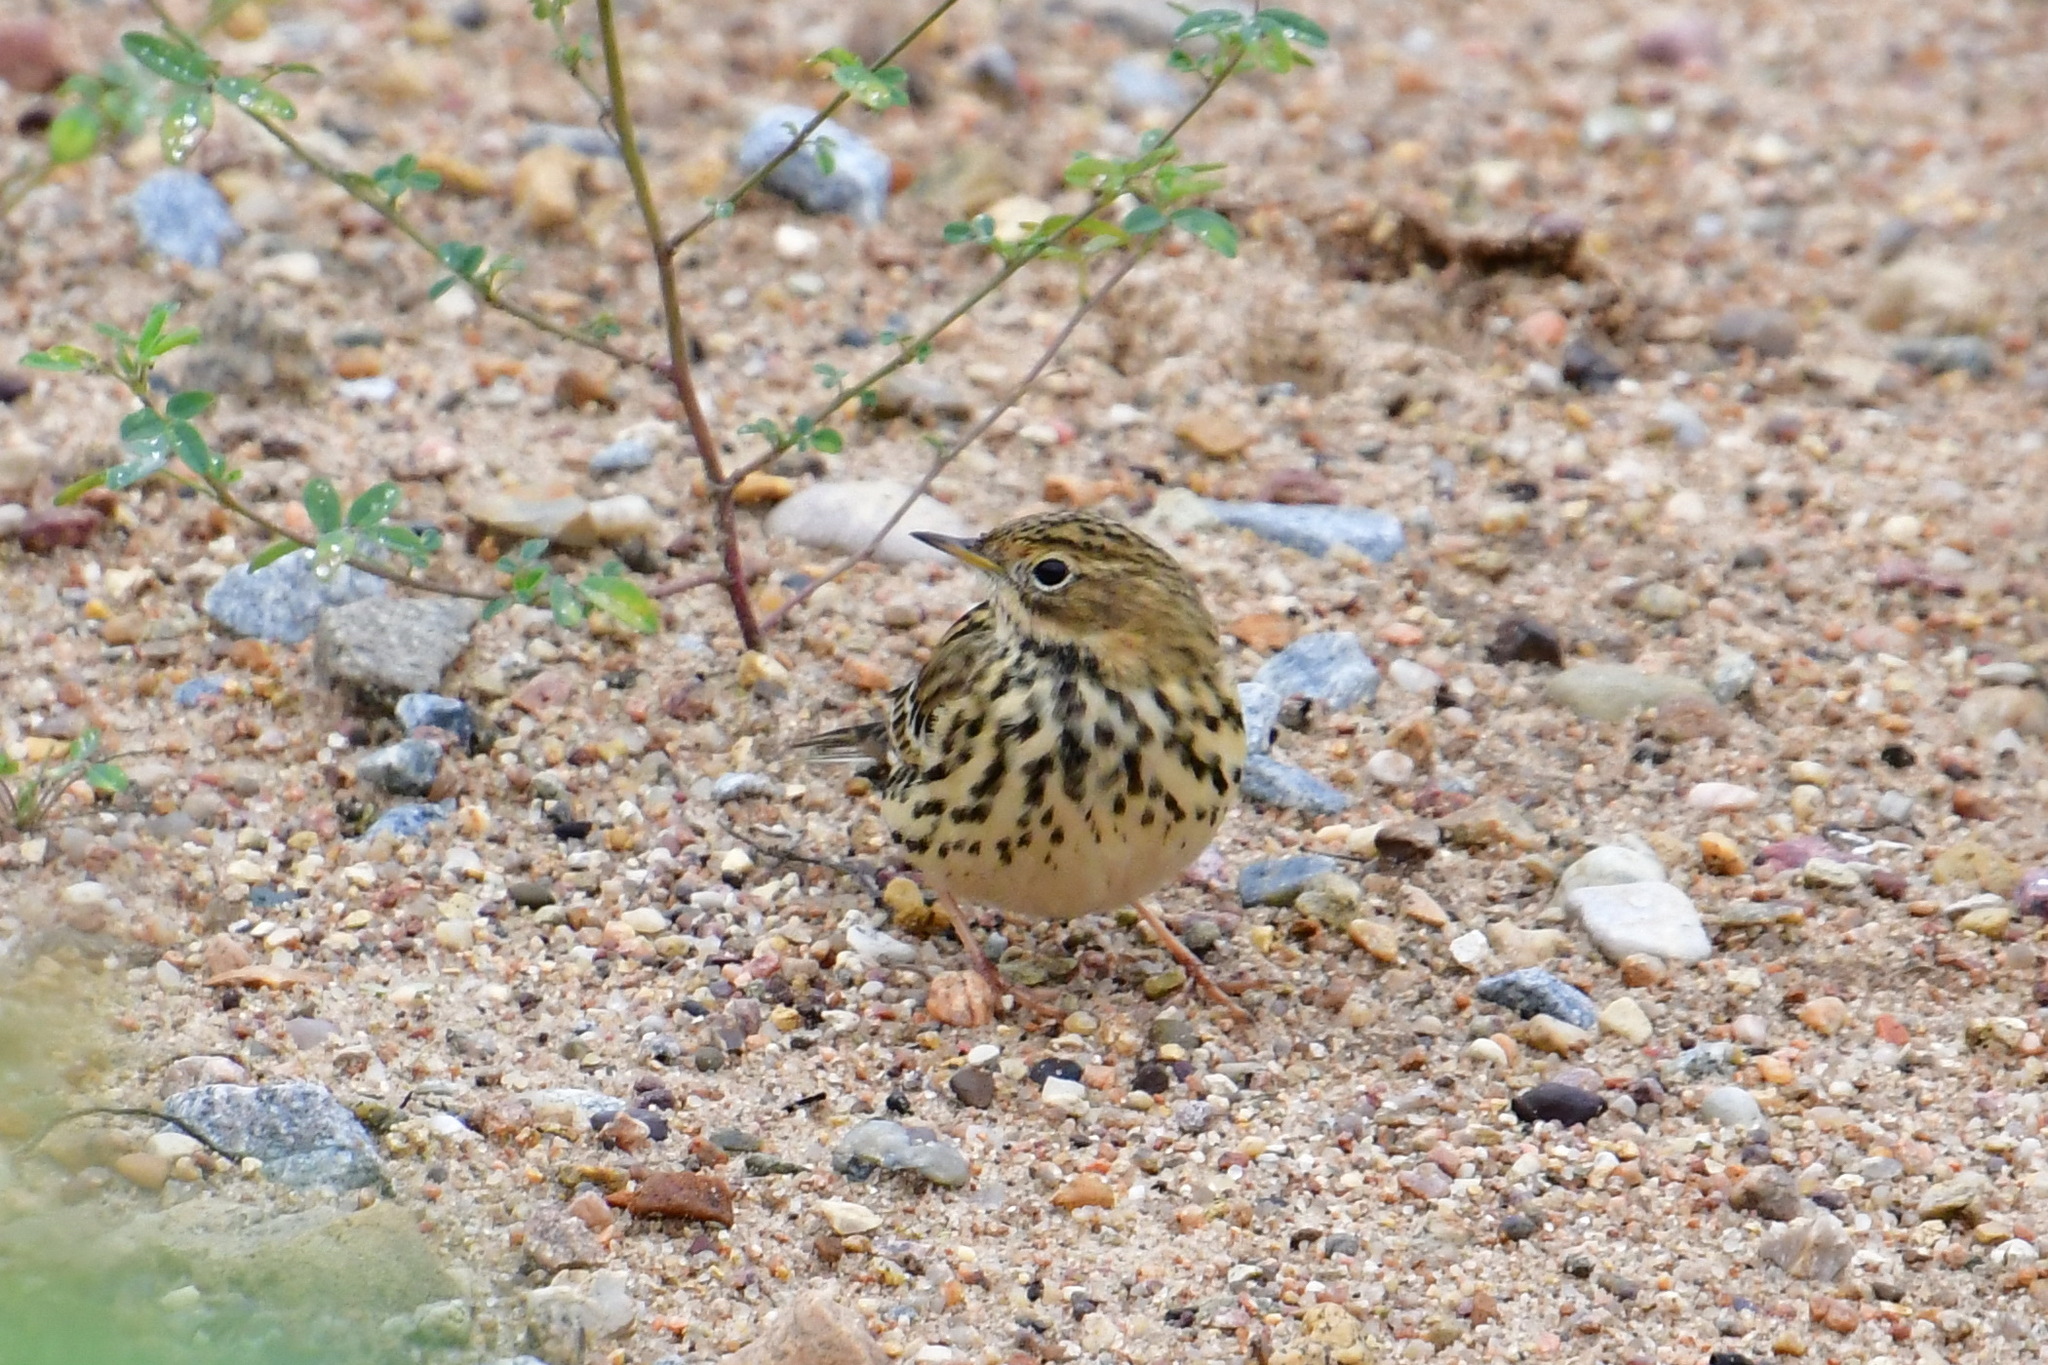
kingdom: Animalia
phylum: Chordata
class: Aves
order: Passeriformes
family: Motacillidae
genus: Anthus
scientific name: Anthus cervinus
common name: Red-throated pipit
